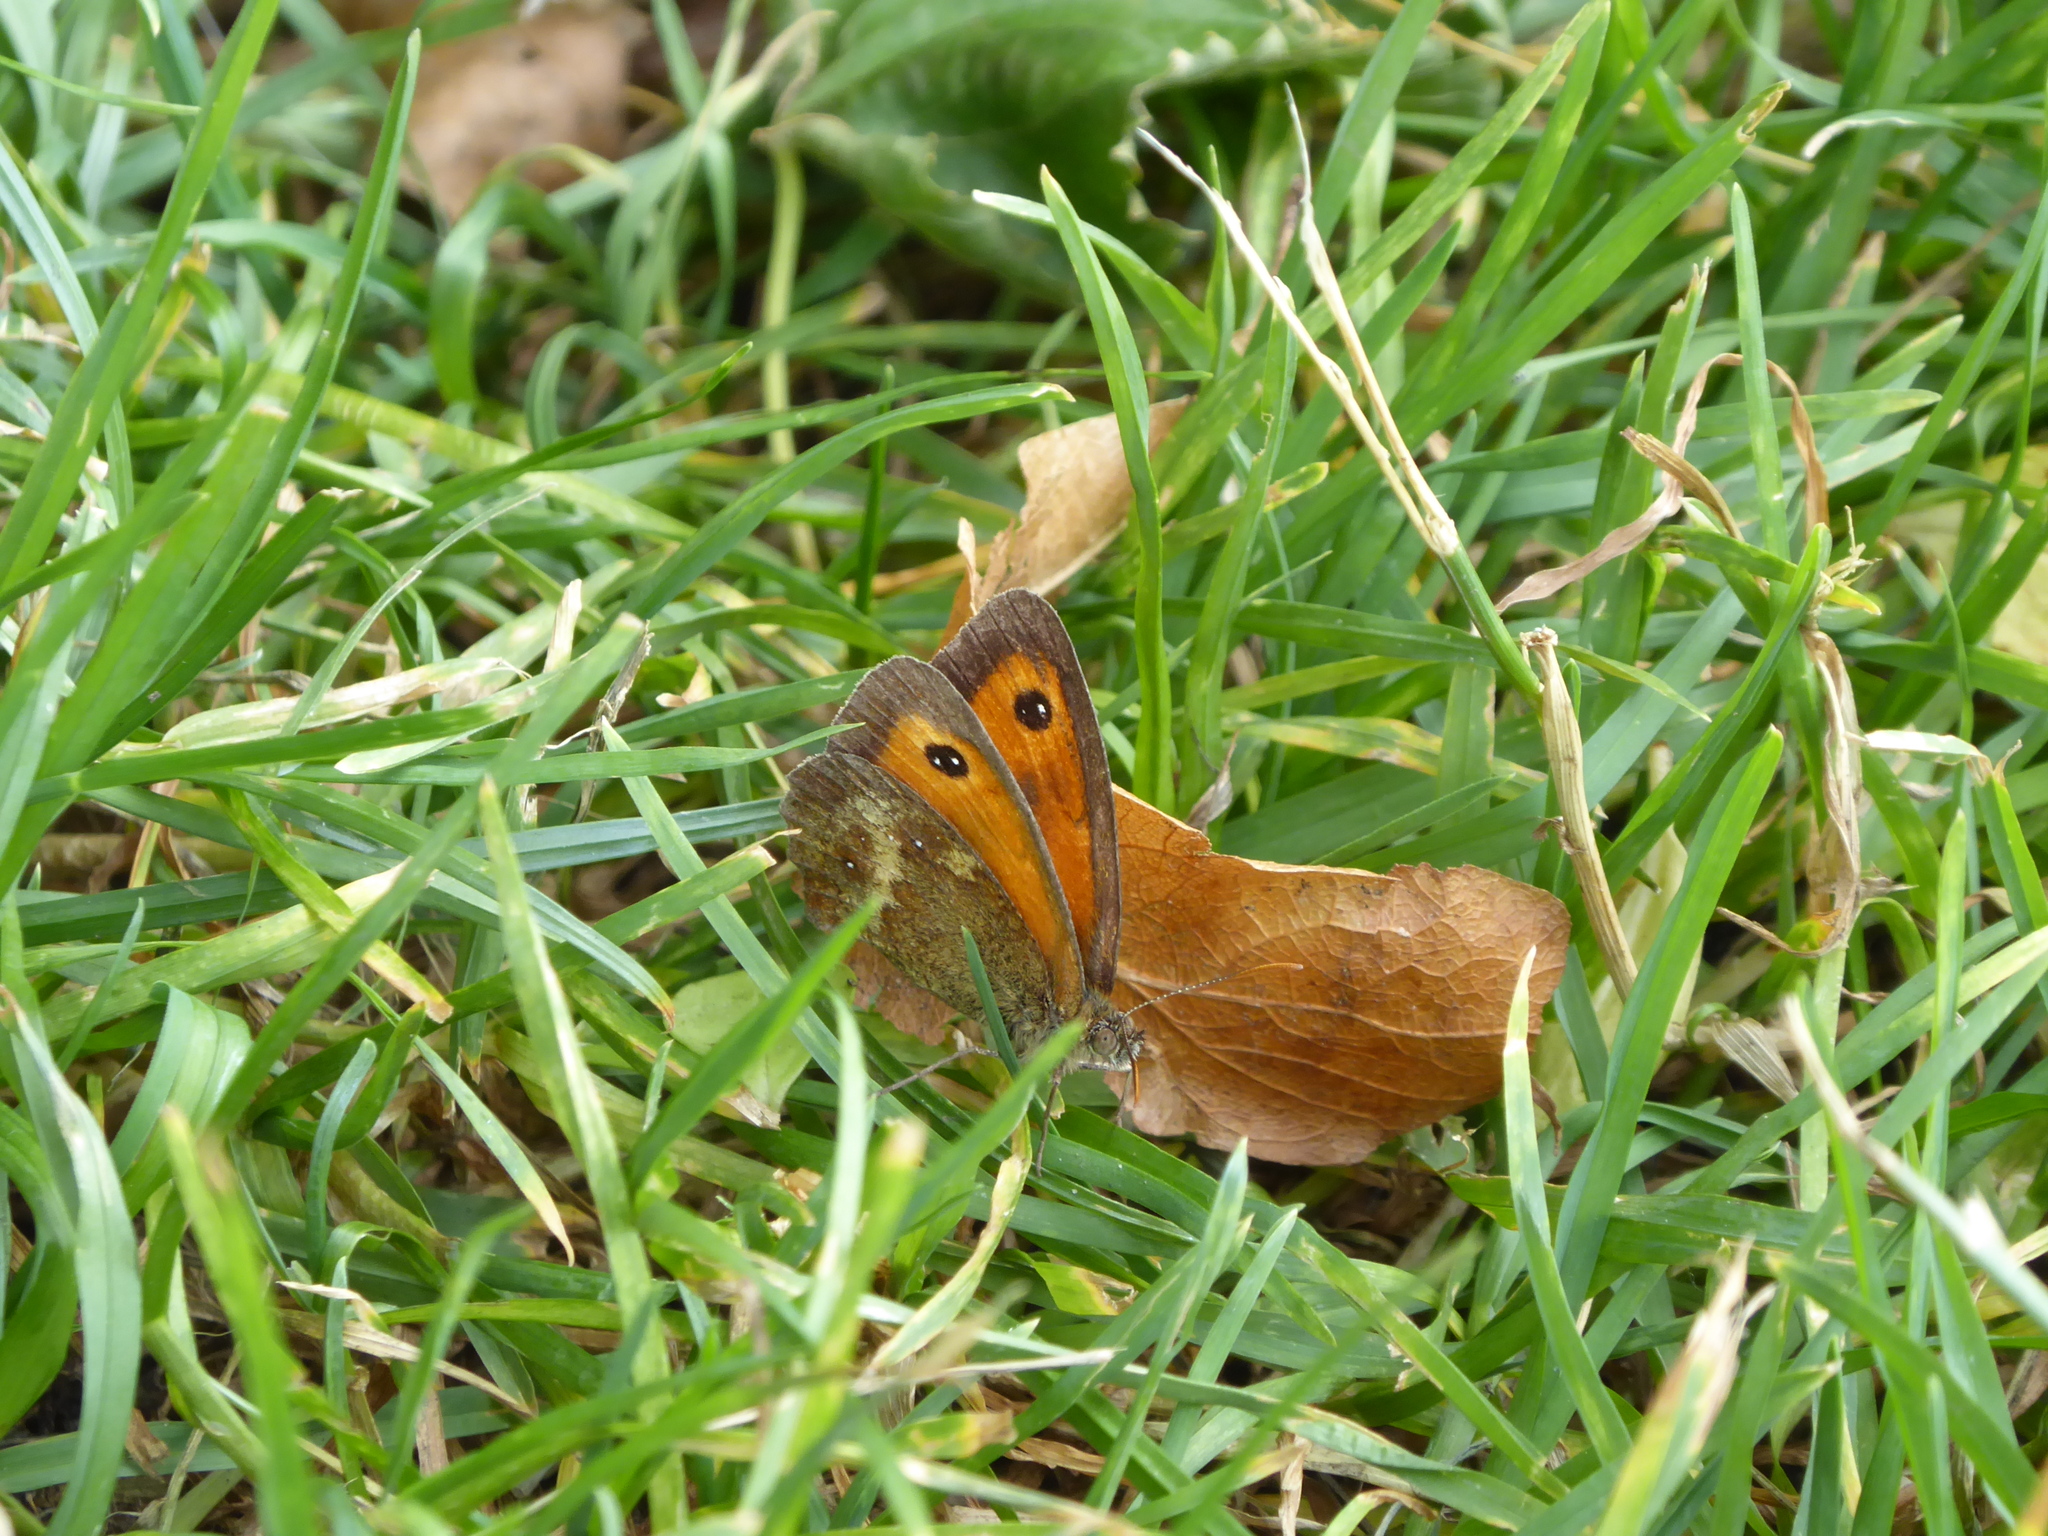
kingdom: Animalia
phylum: Arthropoda
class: Insecta
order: Lepidoptera
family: Nymphalidae
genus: Pyronia
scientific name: Pyronia tithonus
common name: Gatekeeper
